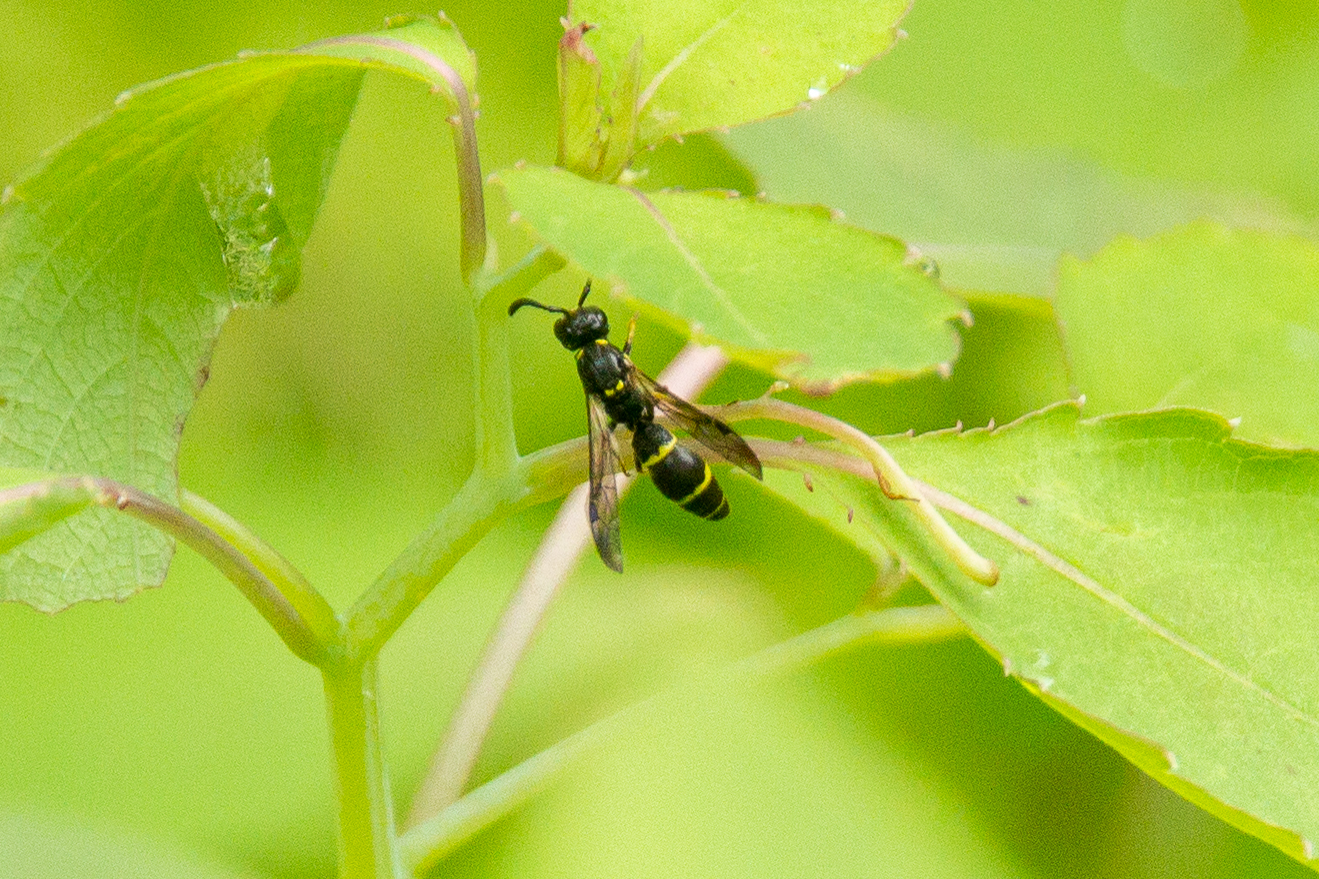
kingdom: Animalia
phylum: Arthropoda
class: Insecta
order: Hymenoptera
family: Eumenidae
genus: Symmorphus
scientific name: Symmorphus
